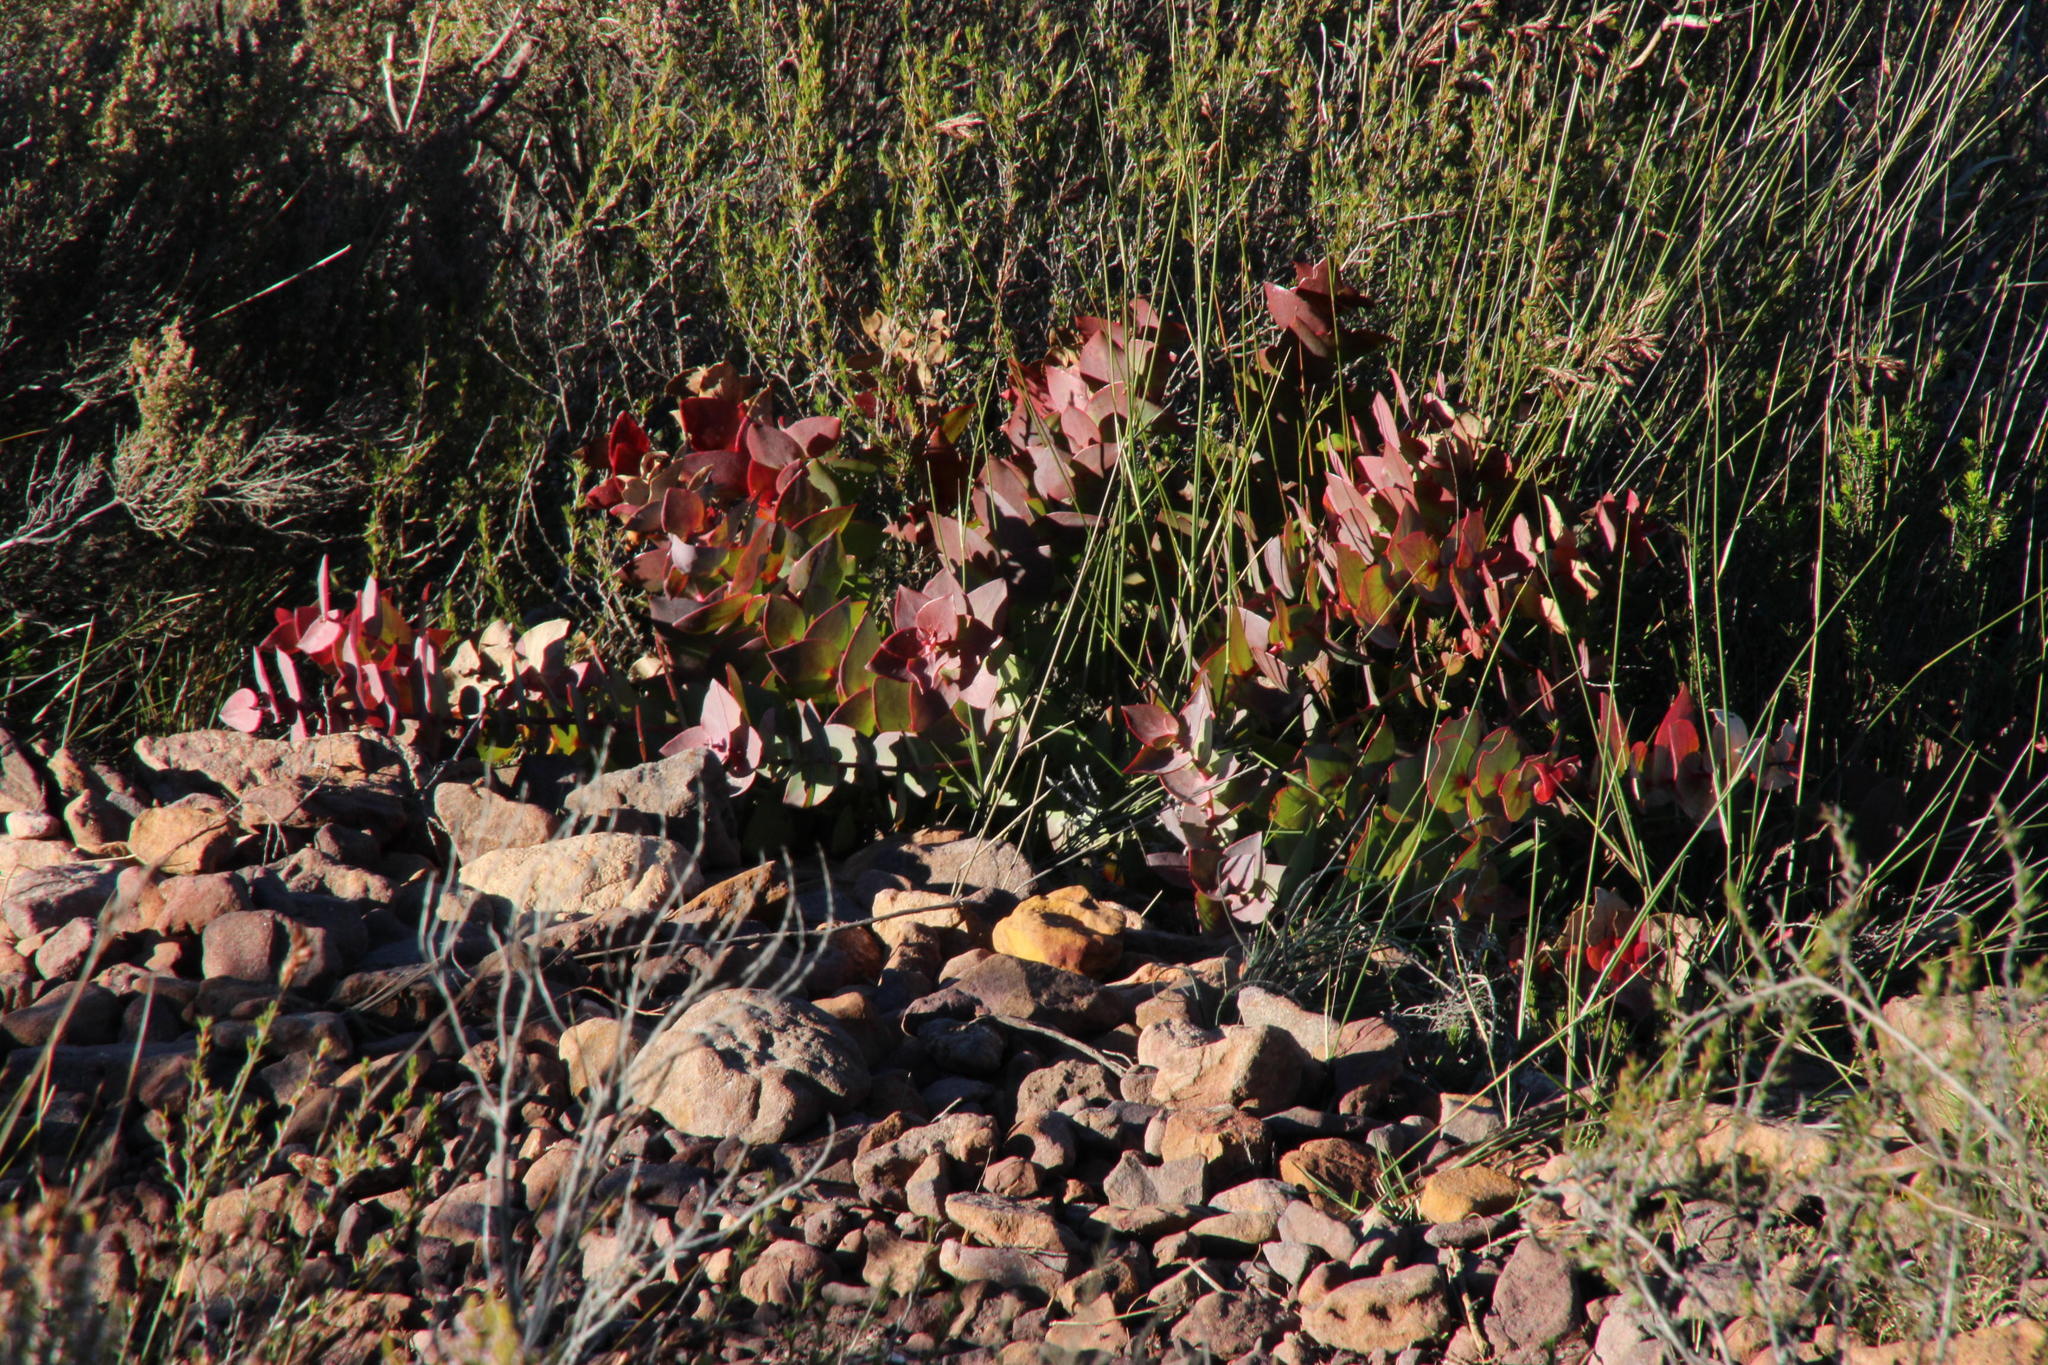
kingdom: Plantae
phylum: Tracheophyta
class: Magnoliopsida
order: Proteales
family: Proteaceae
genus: Protea
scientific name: Protea amplexicaulis
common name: Clasping-leaf sugarbush
